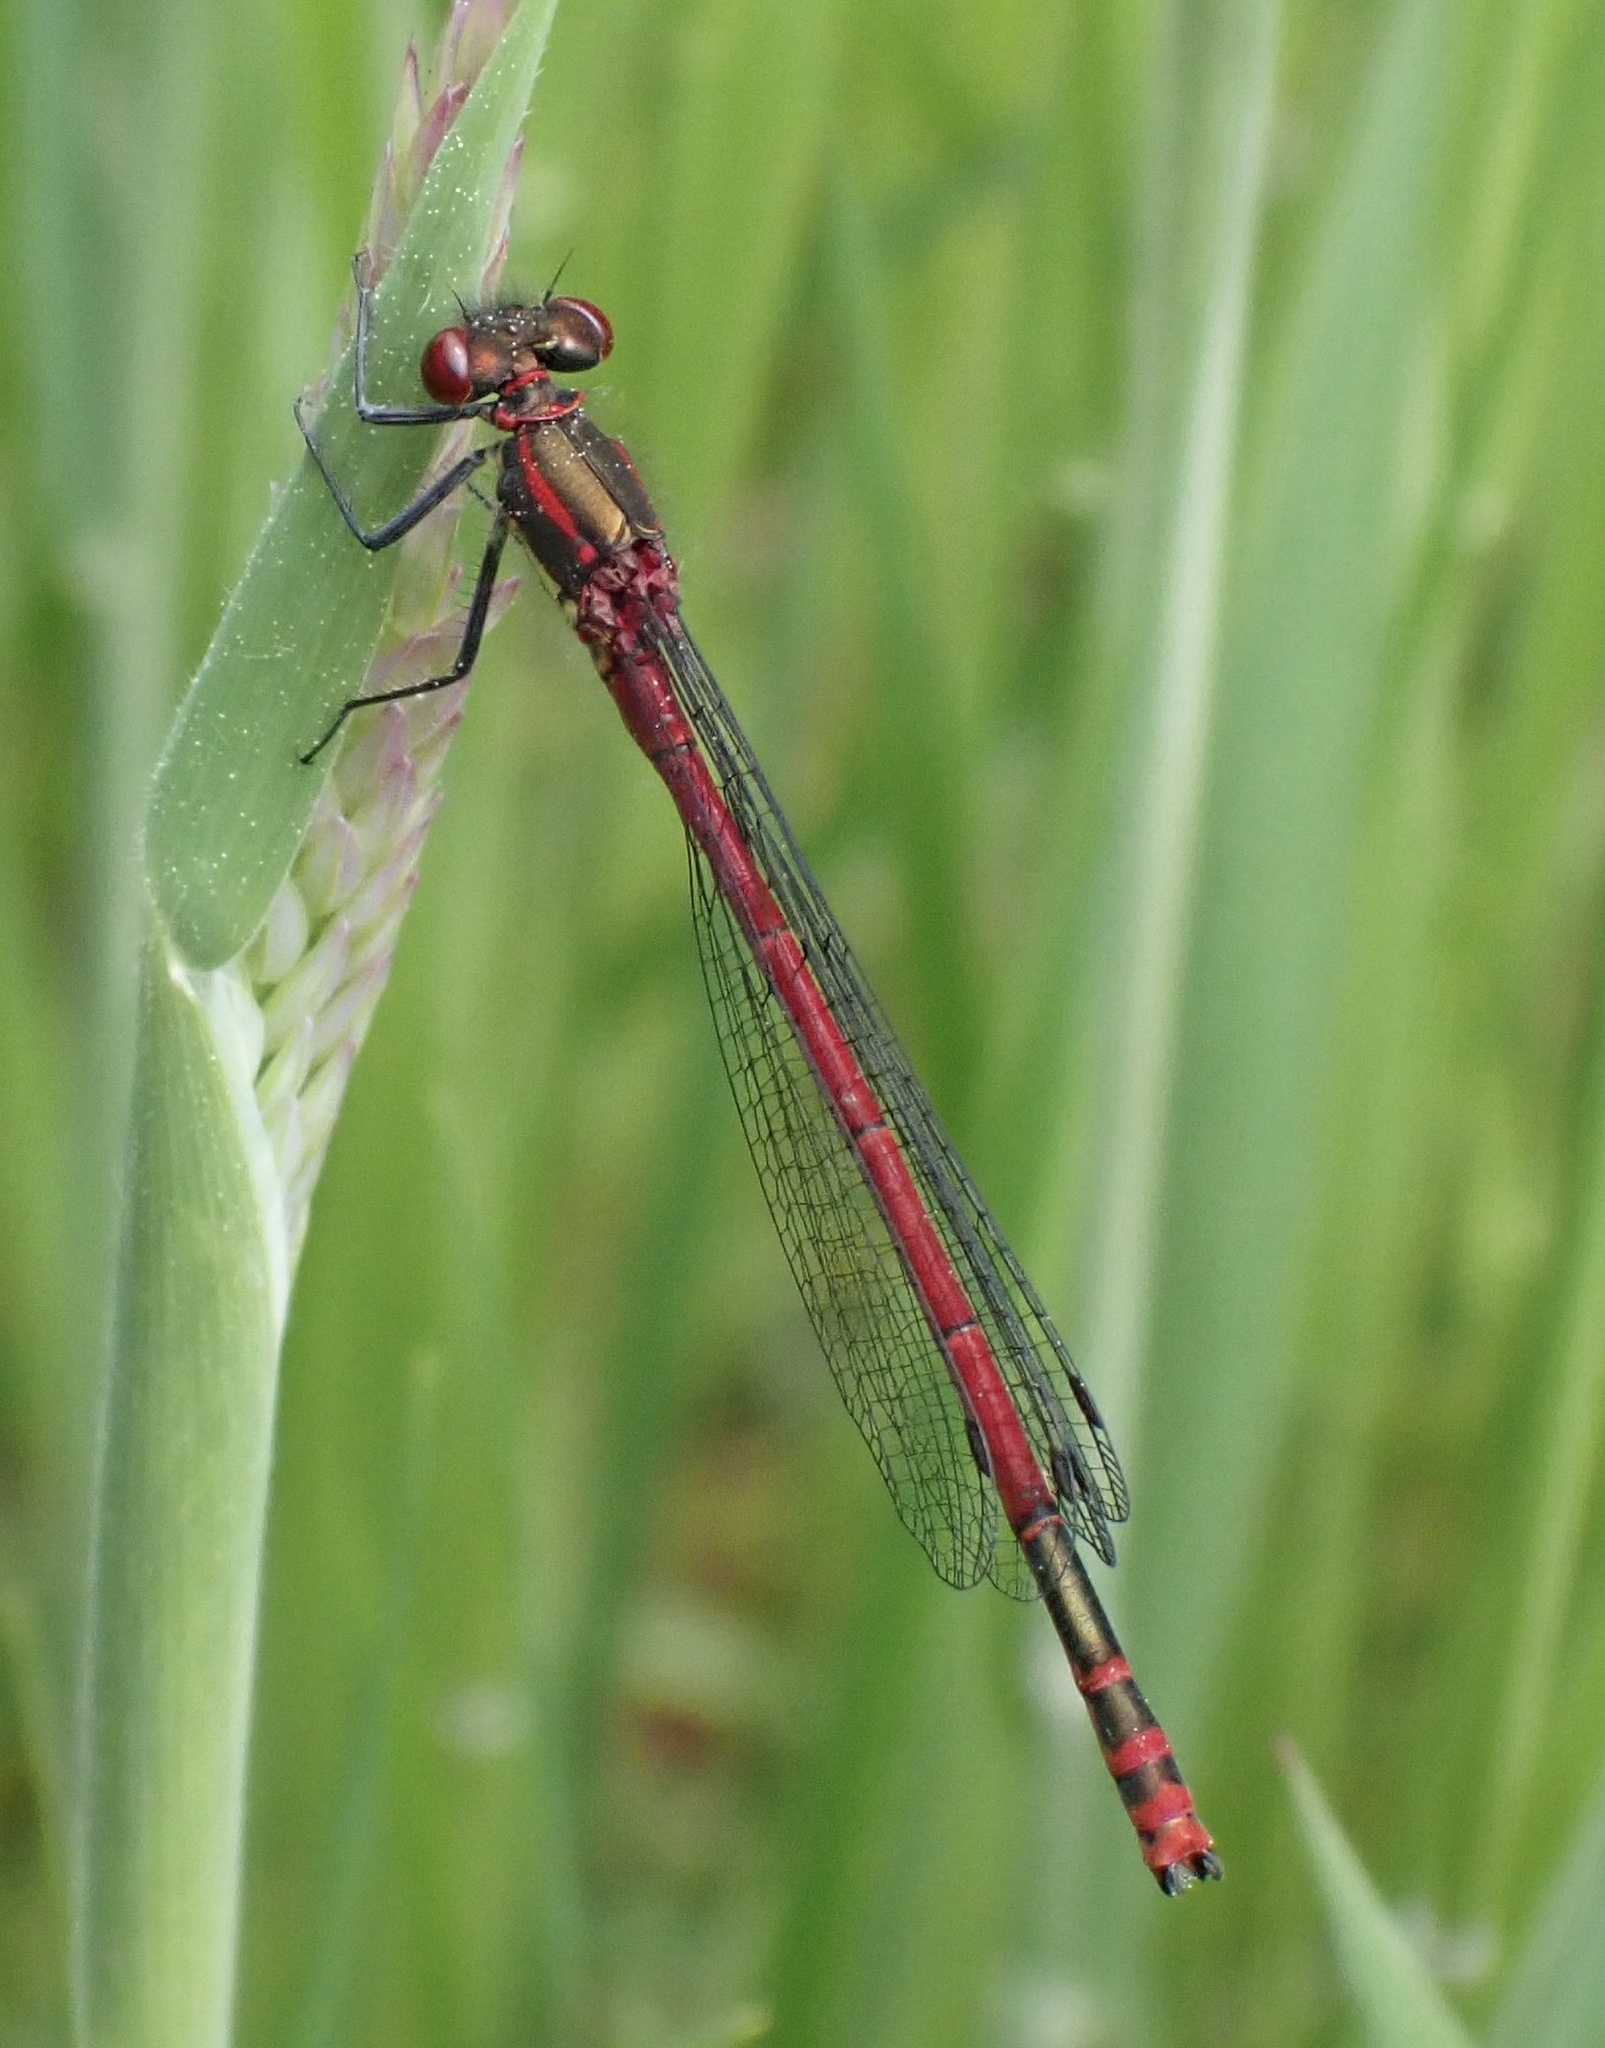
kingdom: Animalia
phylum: Arthropoda
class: Insecta
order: Odonata
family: Coenagrionidae
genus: Pyrrhosoma
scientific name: Pyrrhosoma nymphula
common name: Large red damsel
